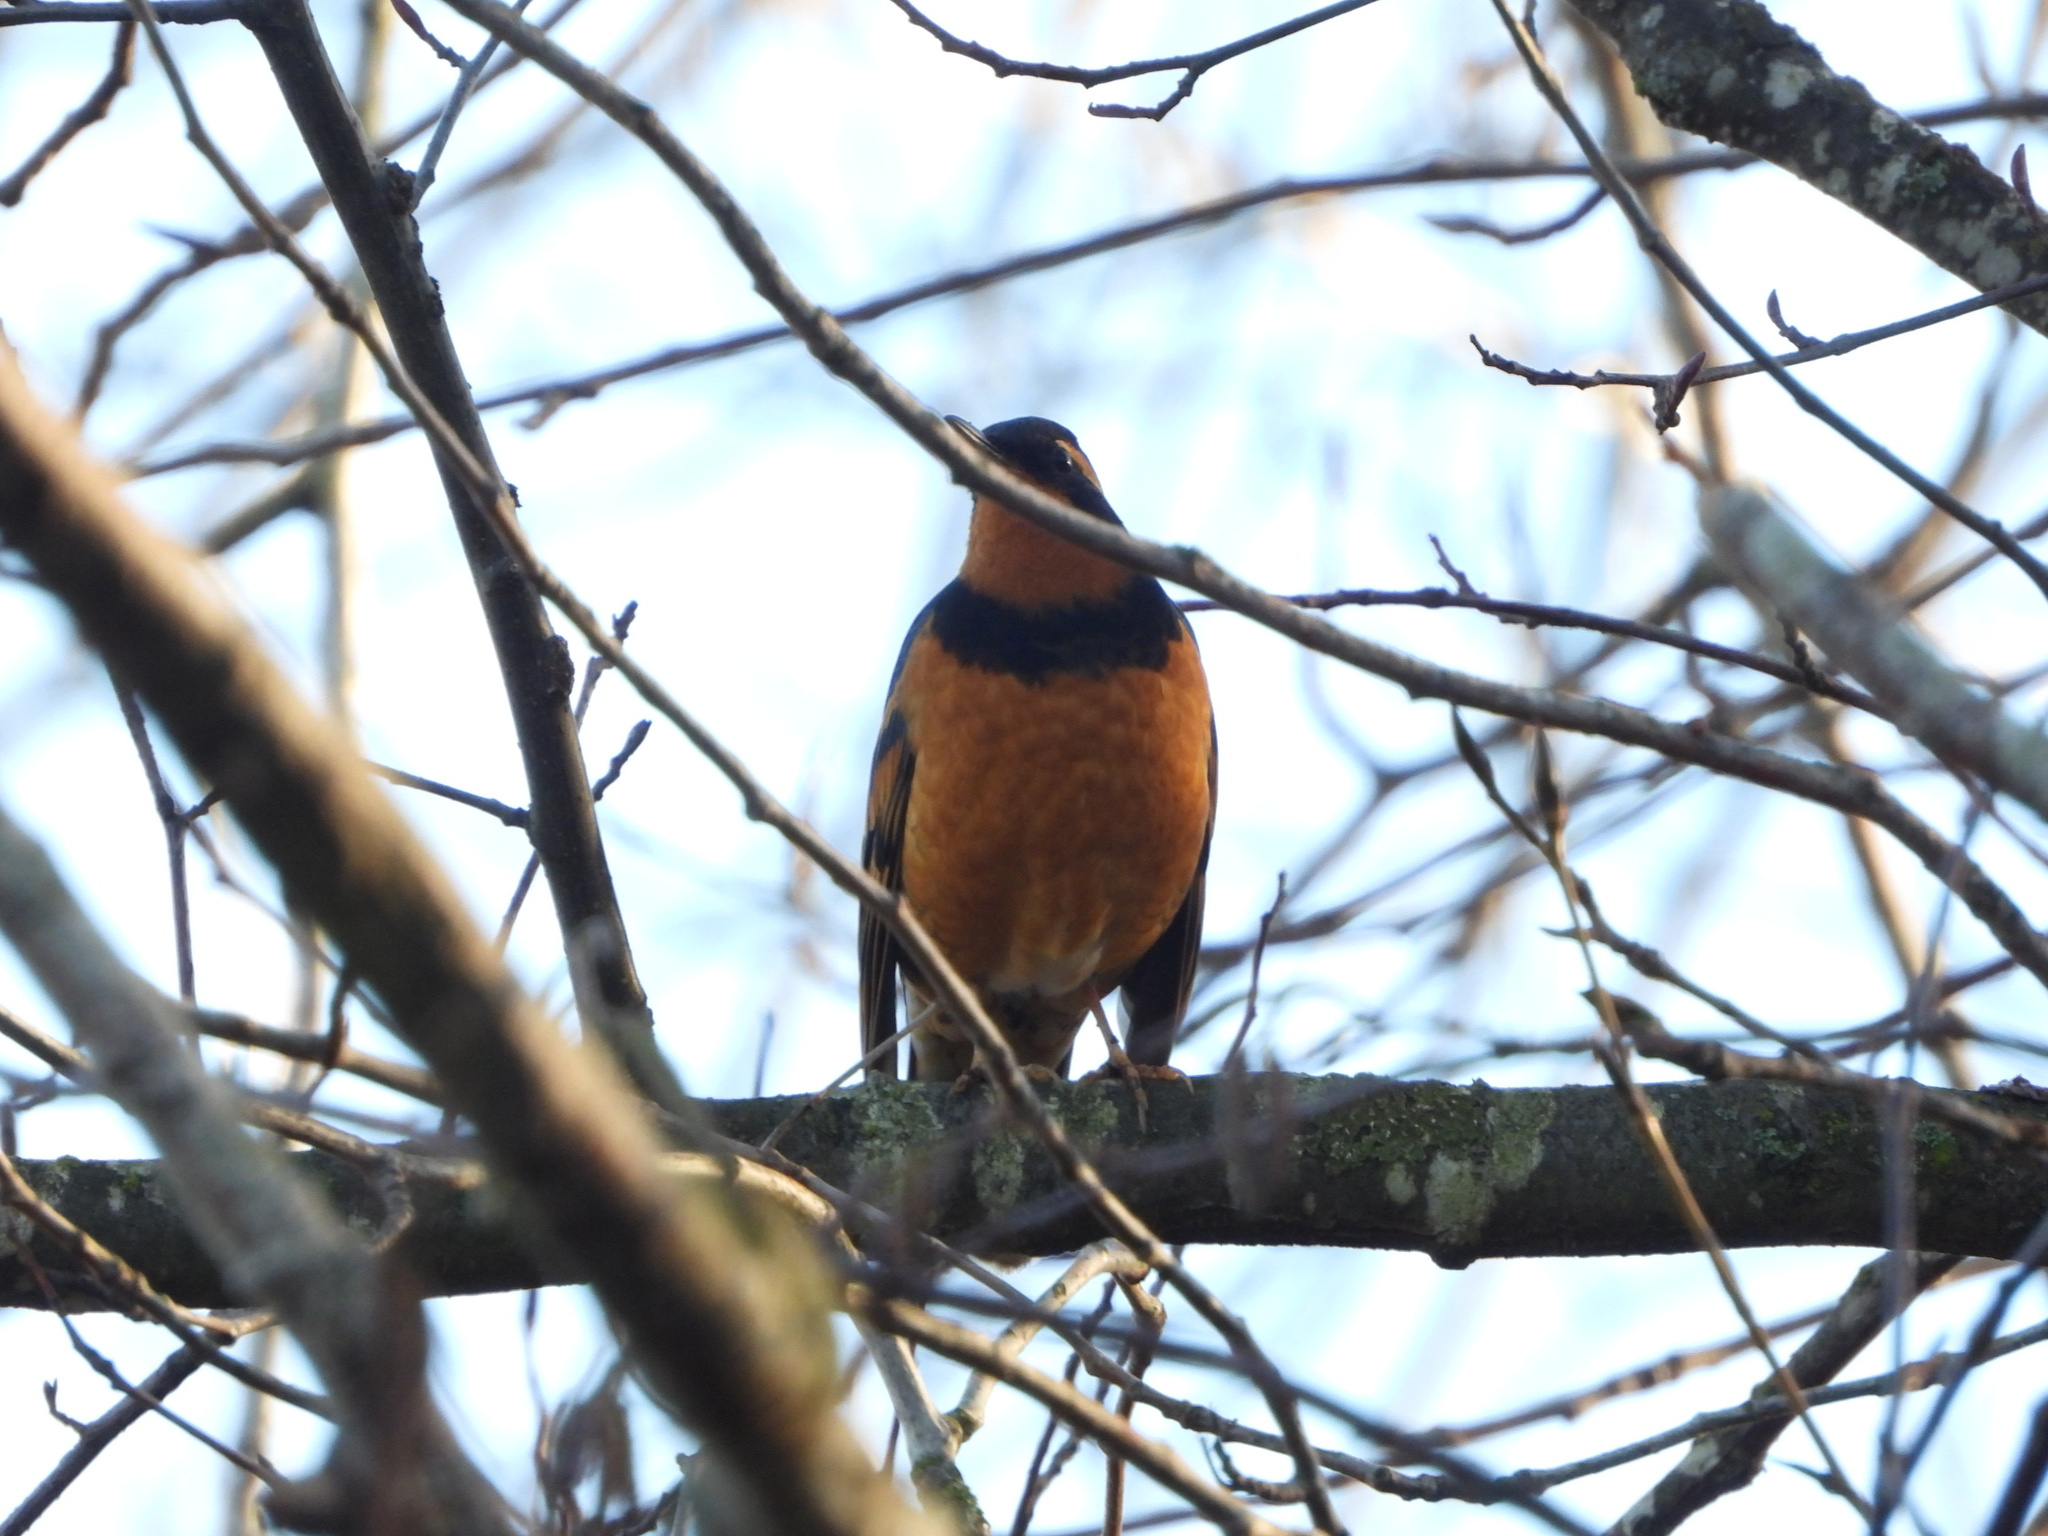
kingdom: Animalia
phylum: Chordata
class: Aves
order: Passeriformes
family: Turdidae
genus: Ixoreus
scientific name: Ixoreus naevius
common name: Varied thrush
